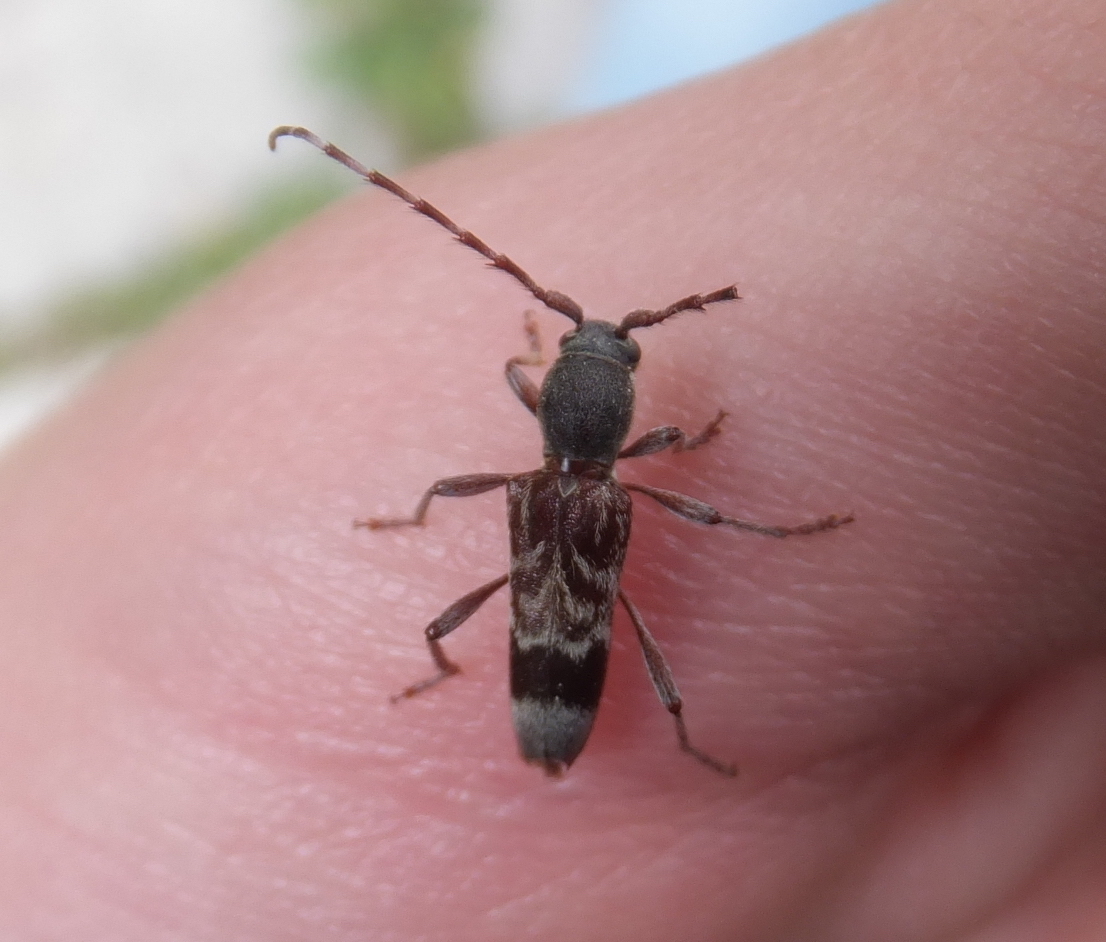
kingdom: Animalia
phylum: Arthropoda
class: Insecta
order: Coleoptera
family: Cerambycidae
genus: Anaglyptus
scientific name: Anaglyptus gibbosus
